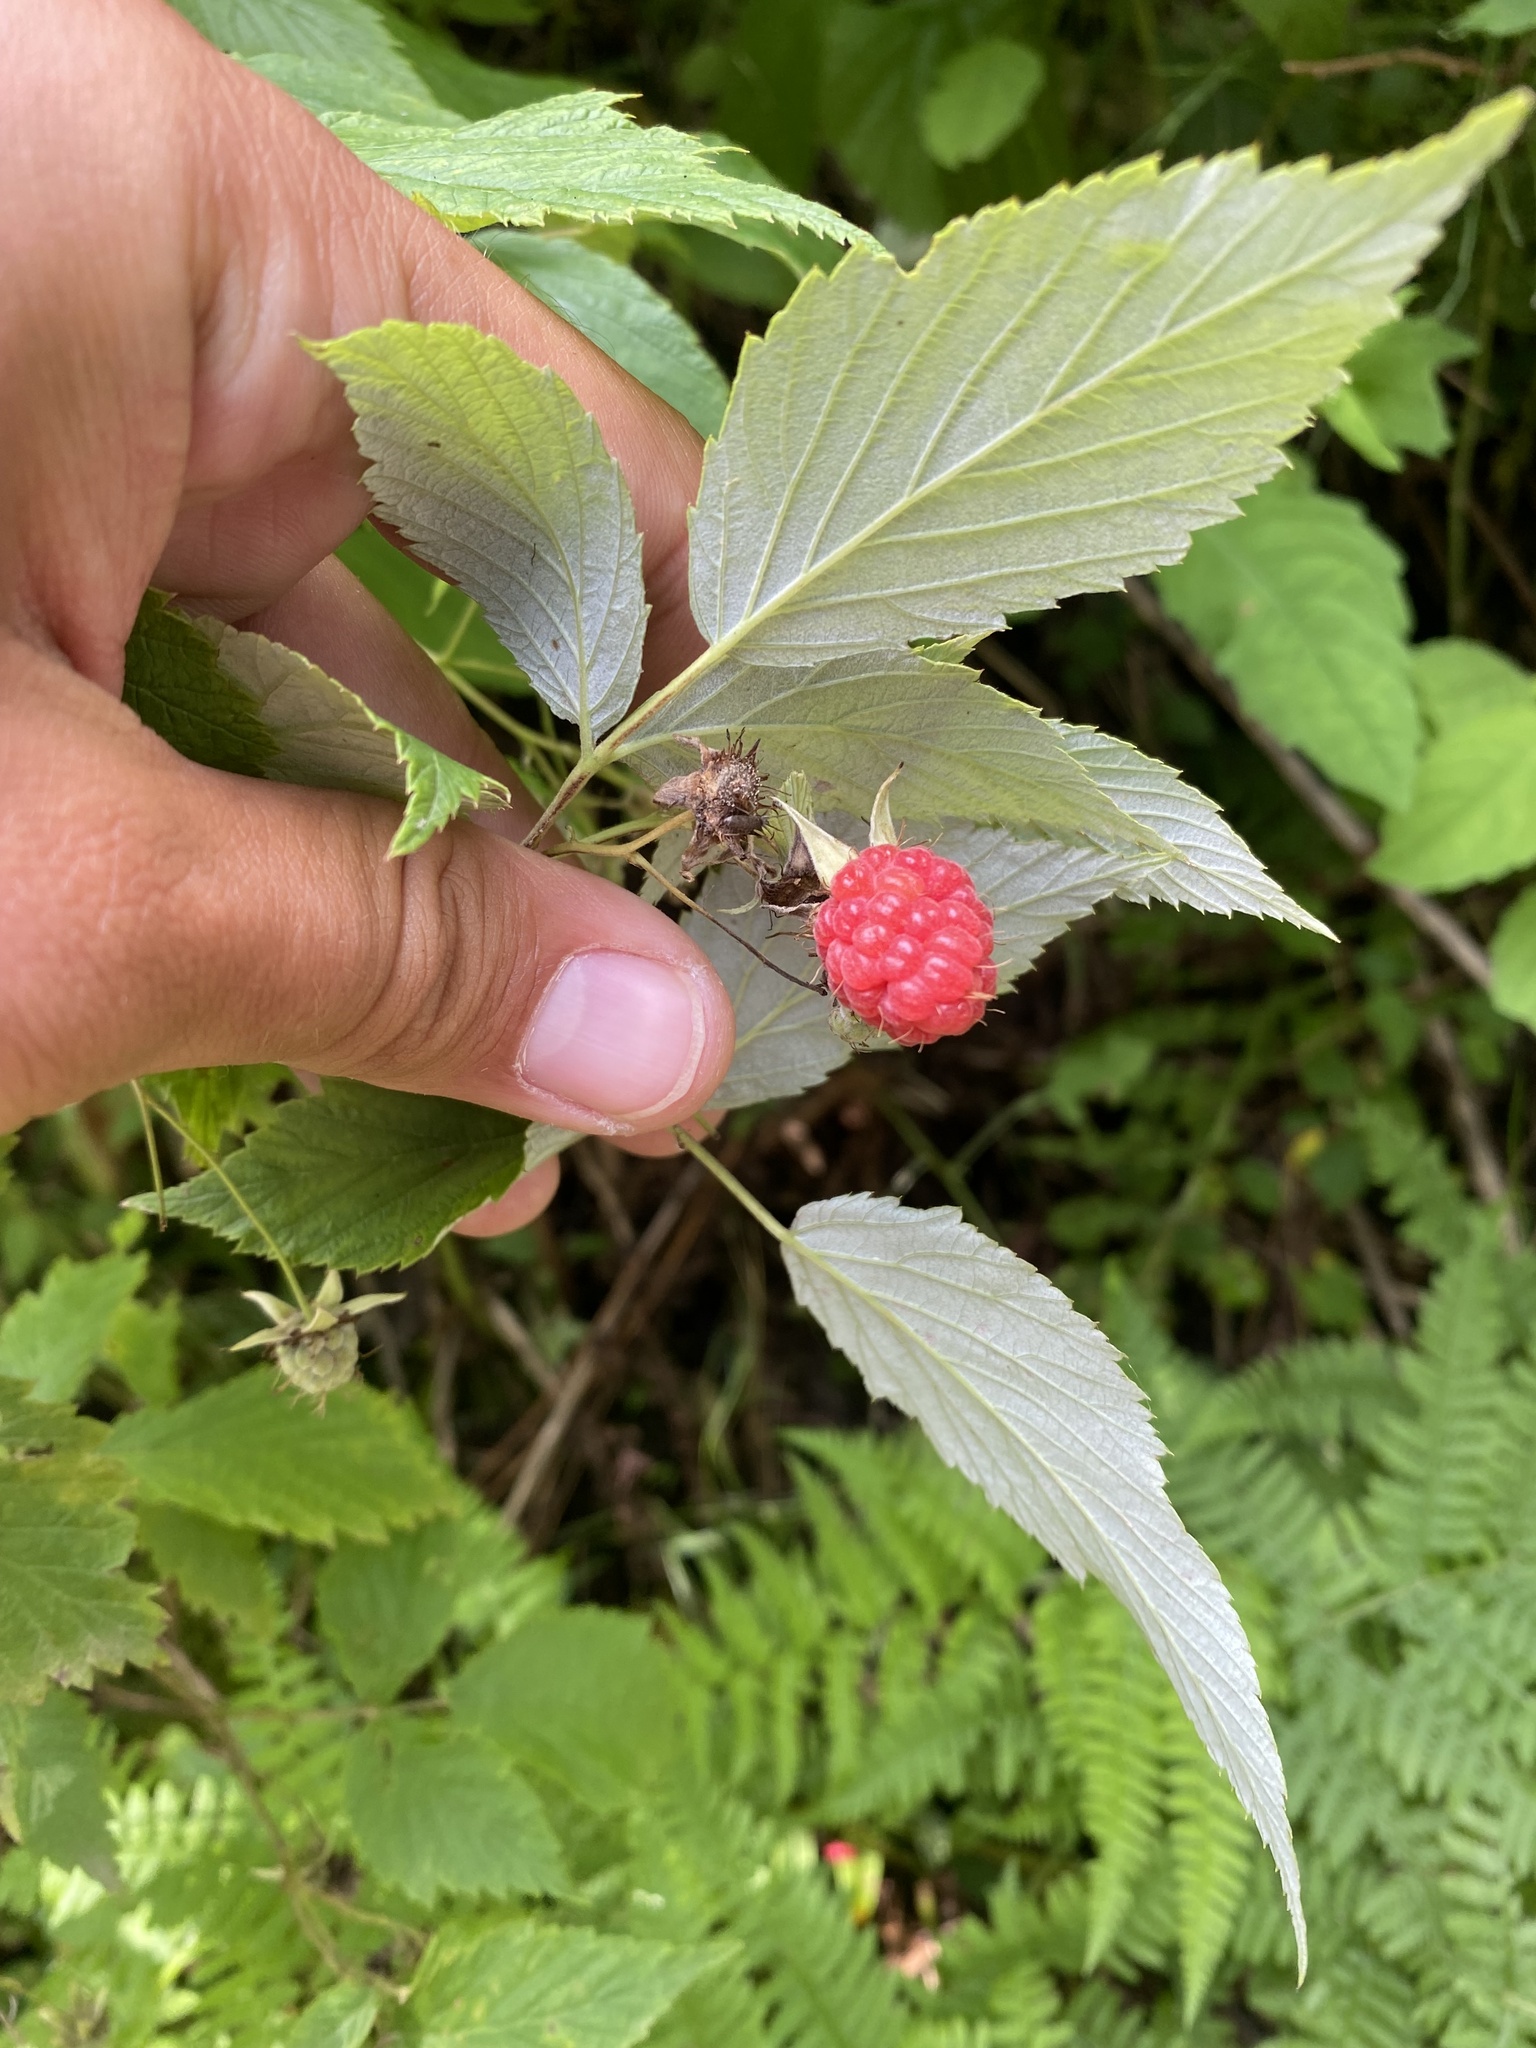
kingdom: Plantae
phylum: Tracheophyta
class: Magnoliopsida
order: Rosales
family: Rosaceae
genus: Rubus
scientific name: Rubus idaeus
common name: Raspberry
